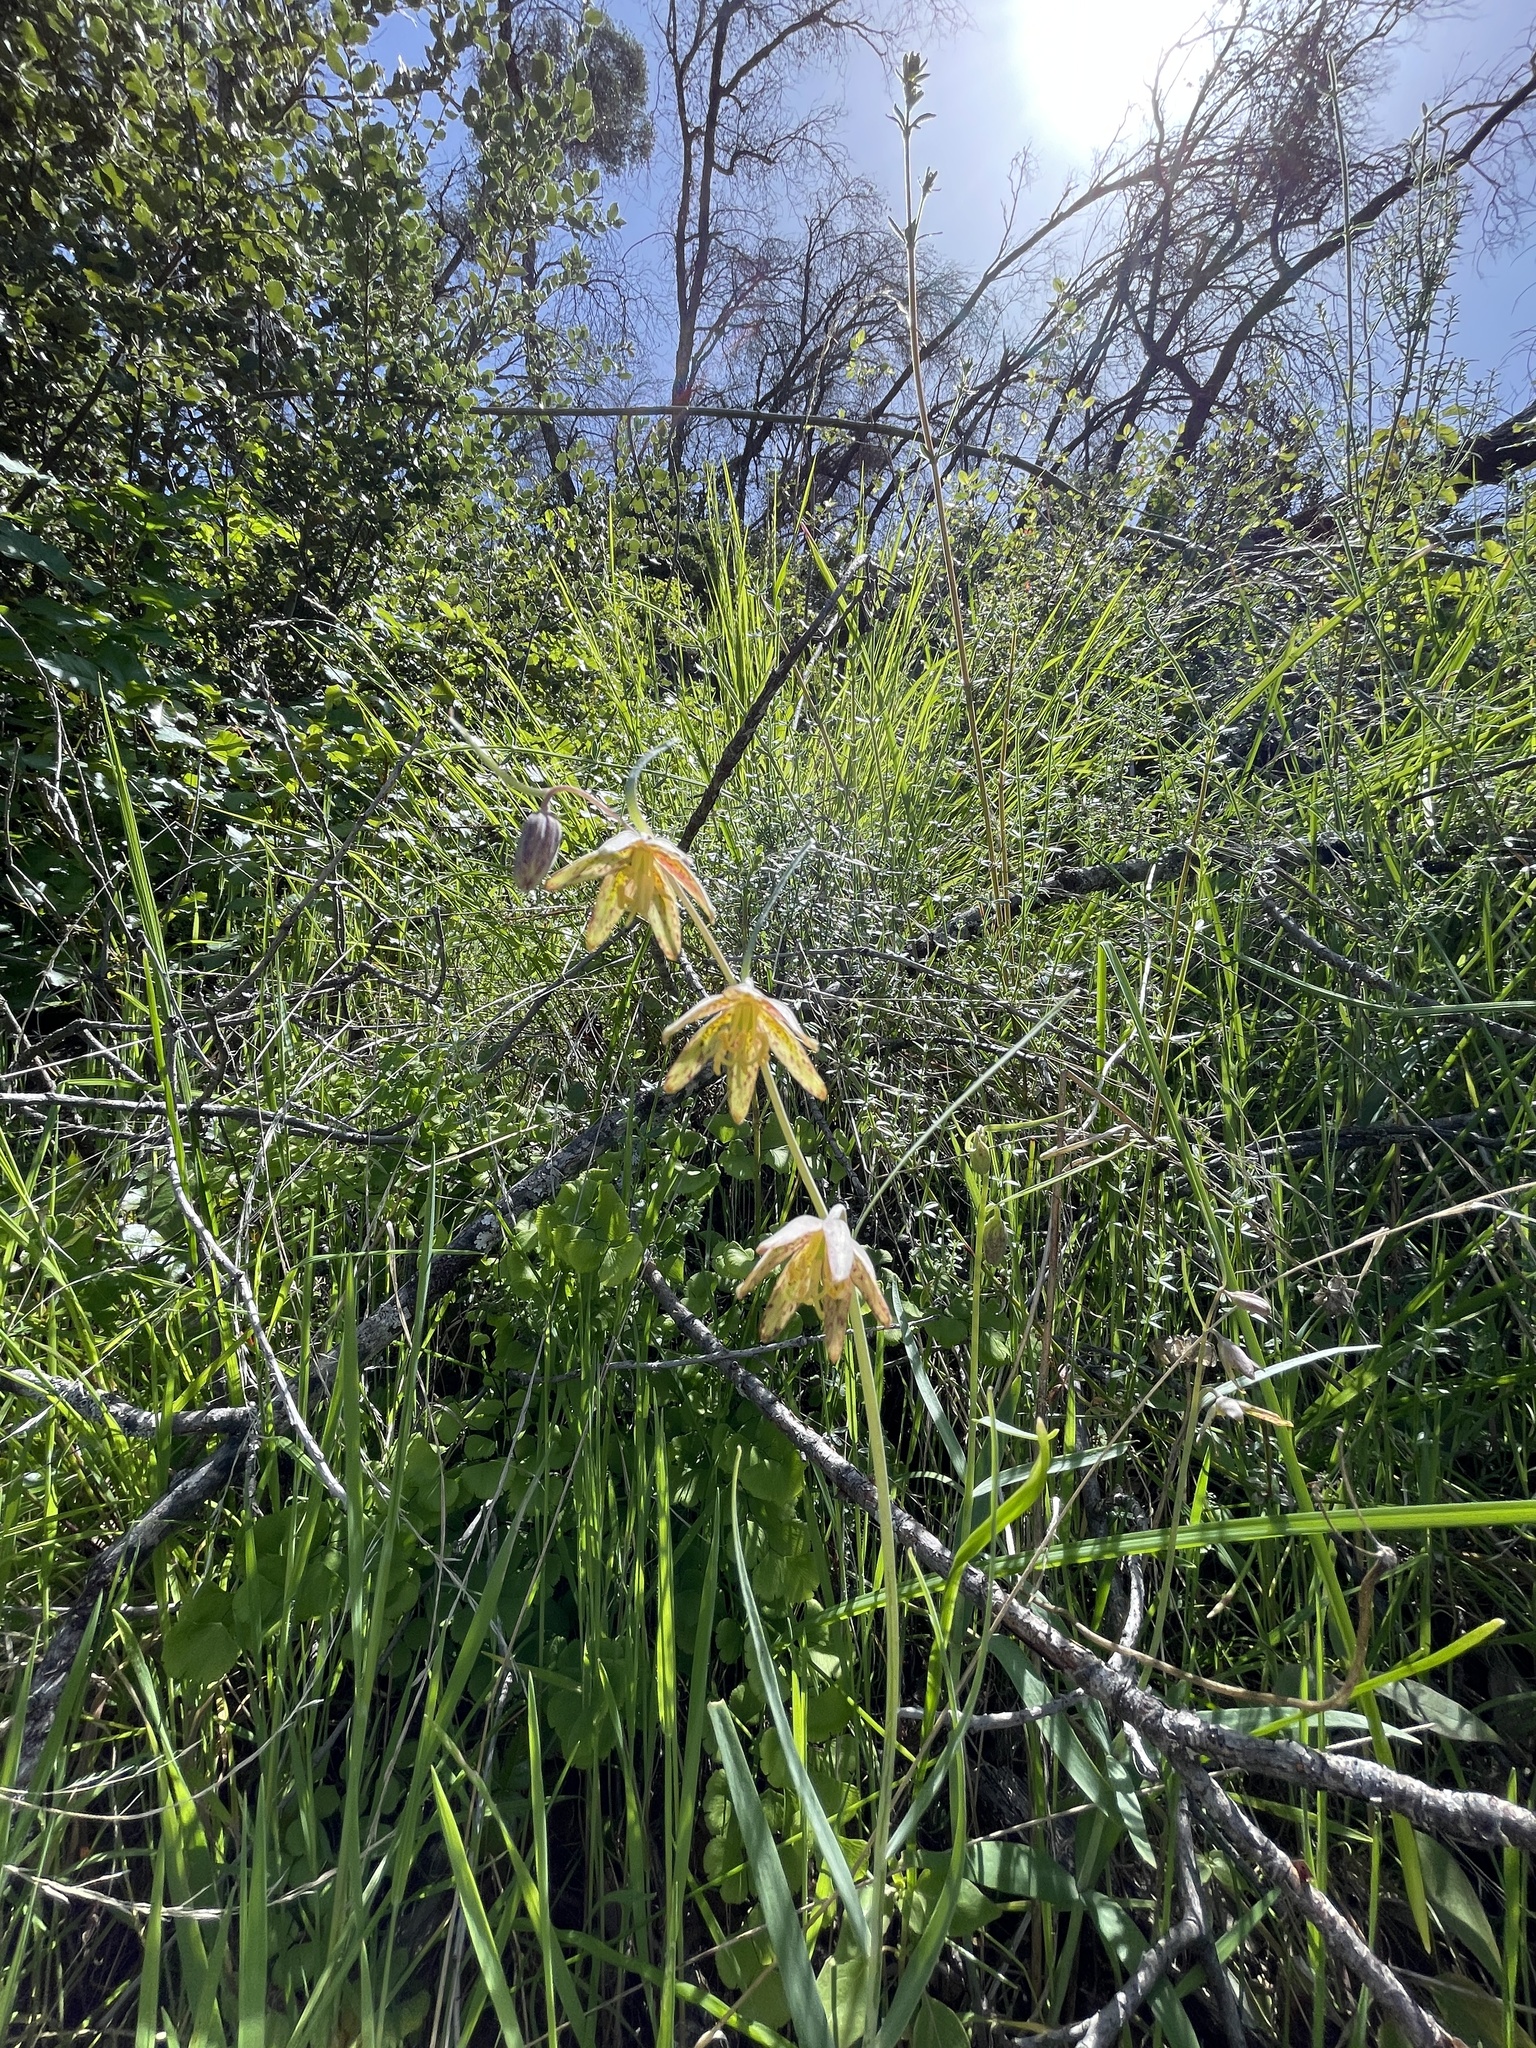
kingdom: Plantae
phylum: Tracheophyta
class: Liliopsida
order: Liliales
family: Liliaceae
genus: Fritillaria
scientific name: Fritillaria micrantha
